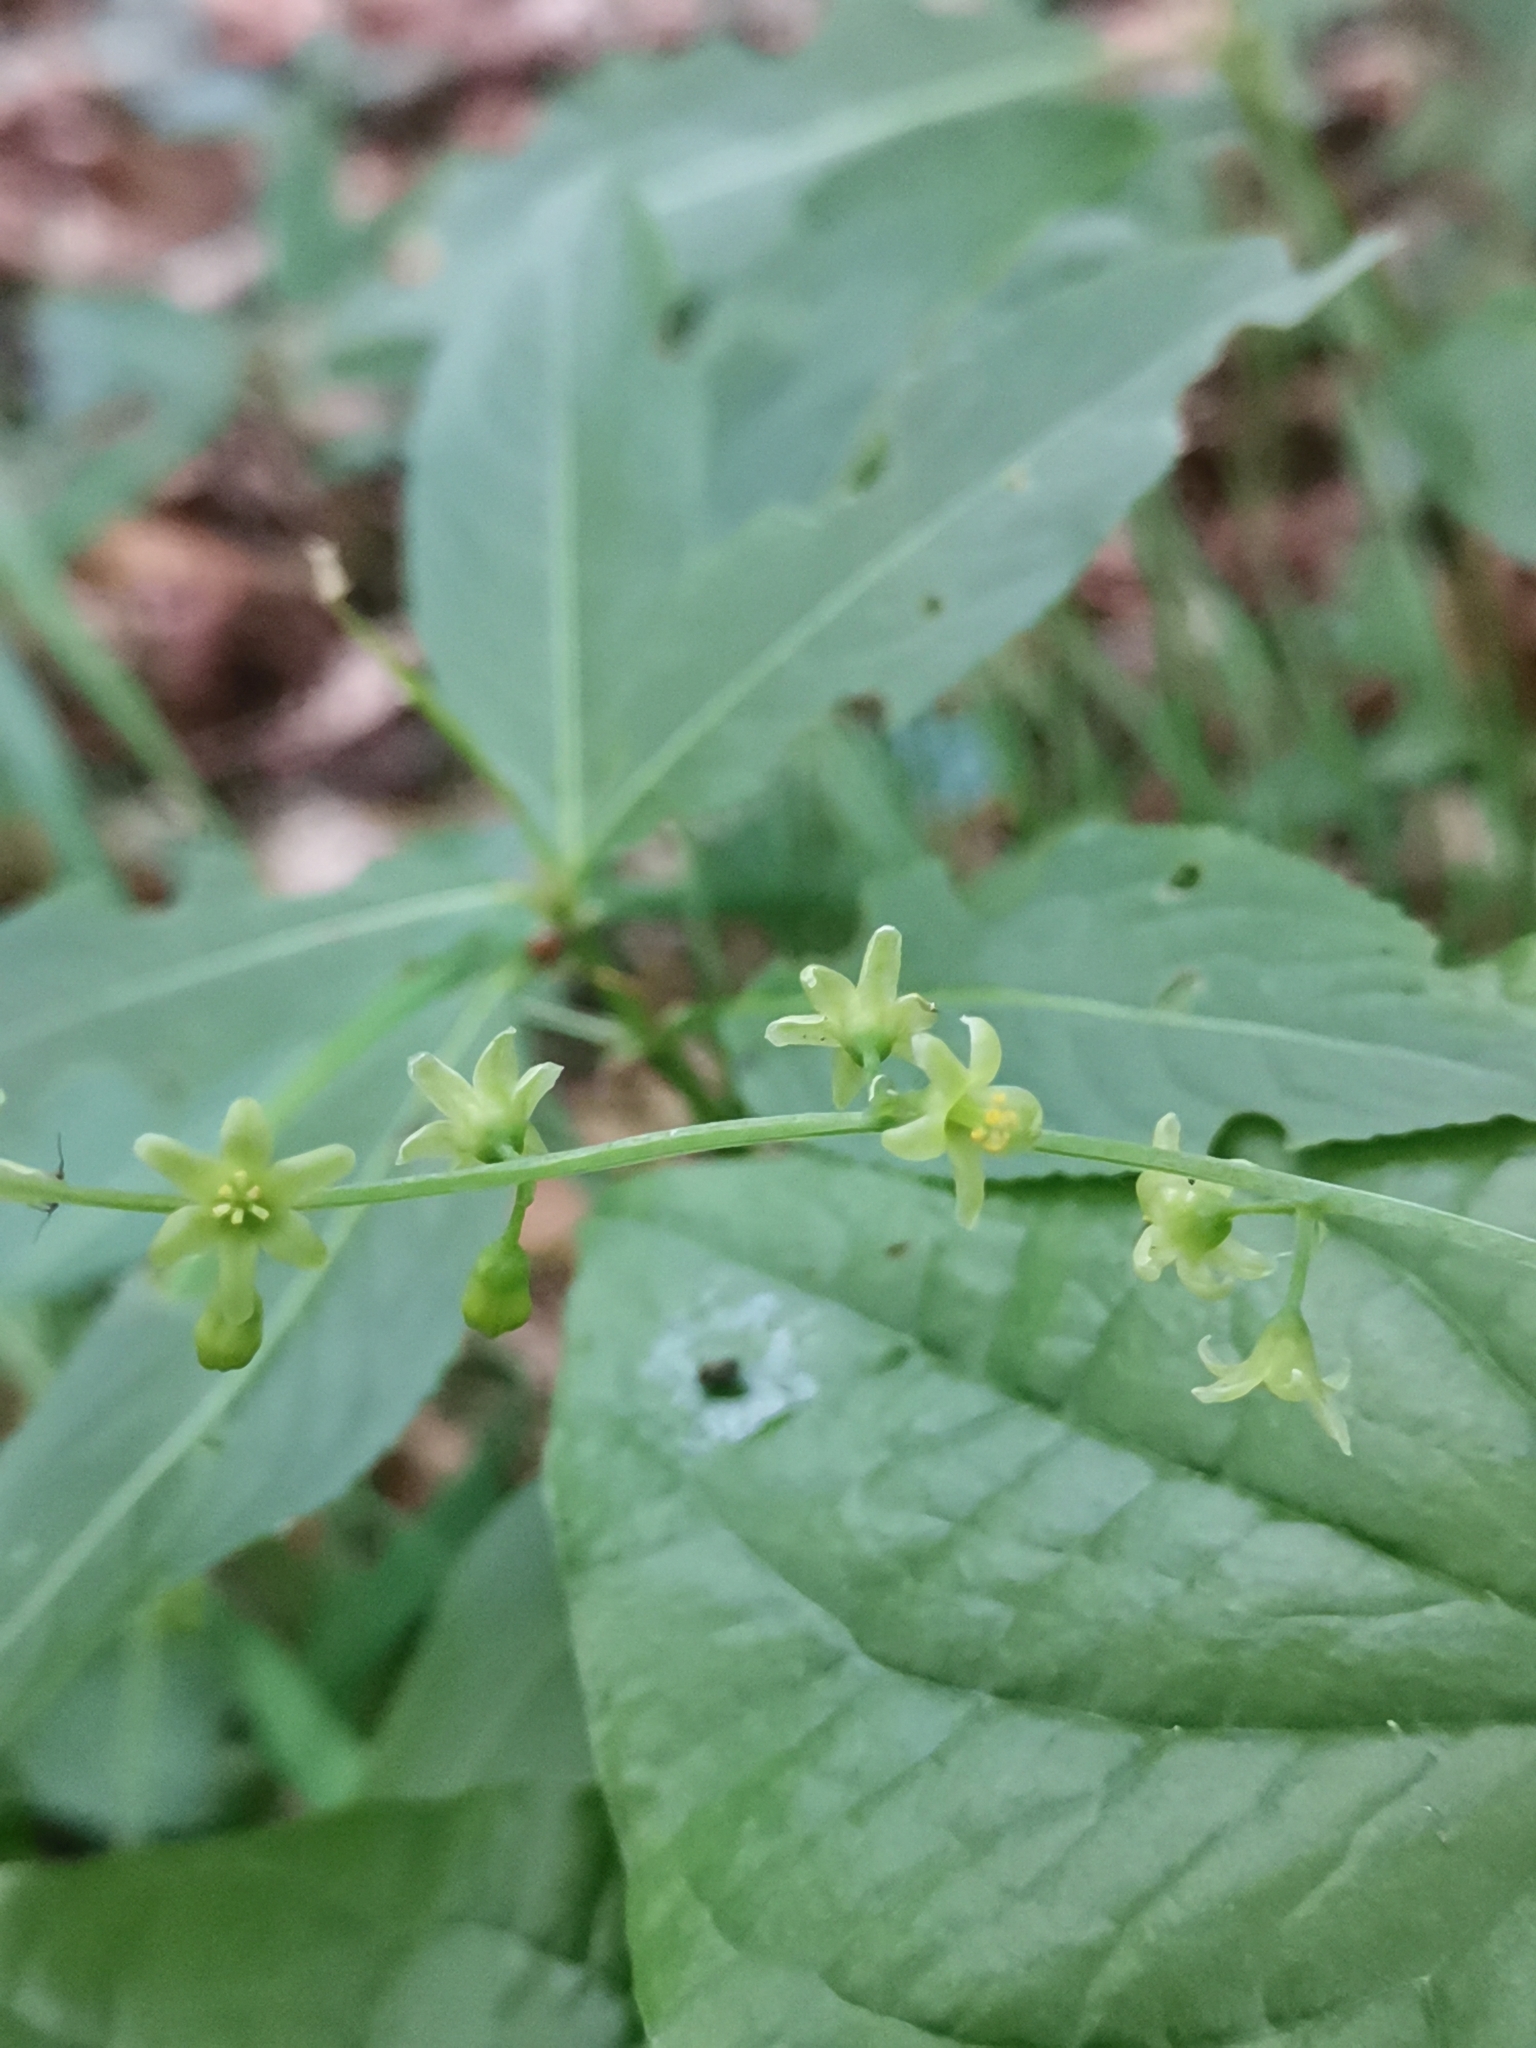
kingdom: Plantae
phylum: Tracheophyta
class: Liliopsida
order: Dioscoreales
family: Dioscoreaceae
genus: Dioscorea
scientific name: Dioscorea communis
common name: Black-bindweed
